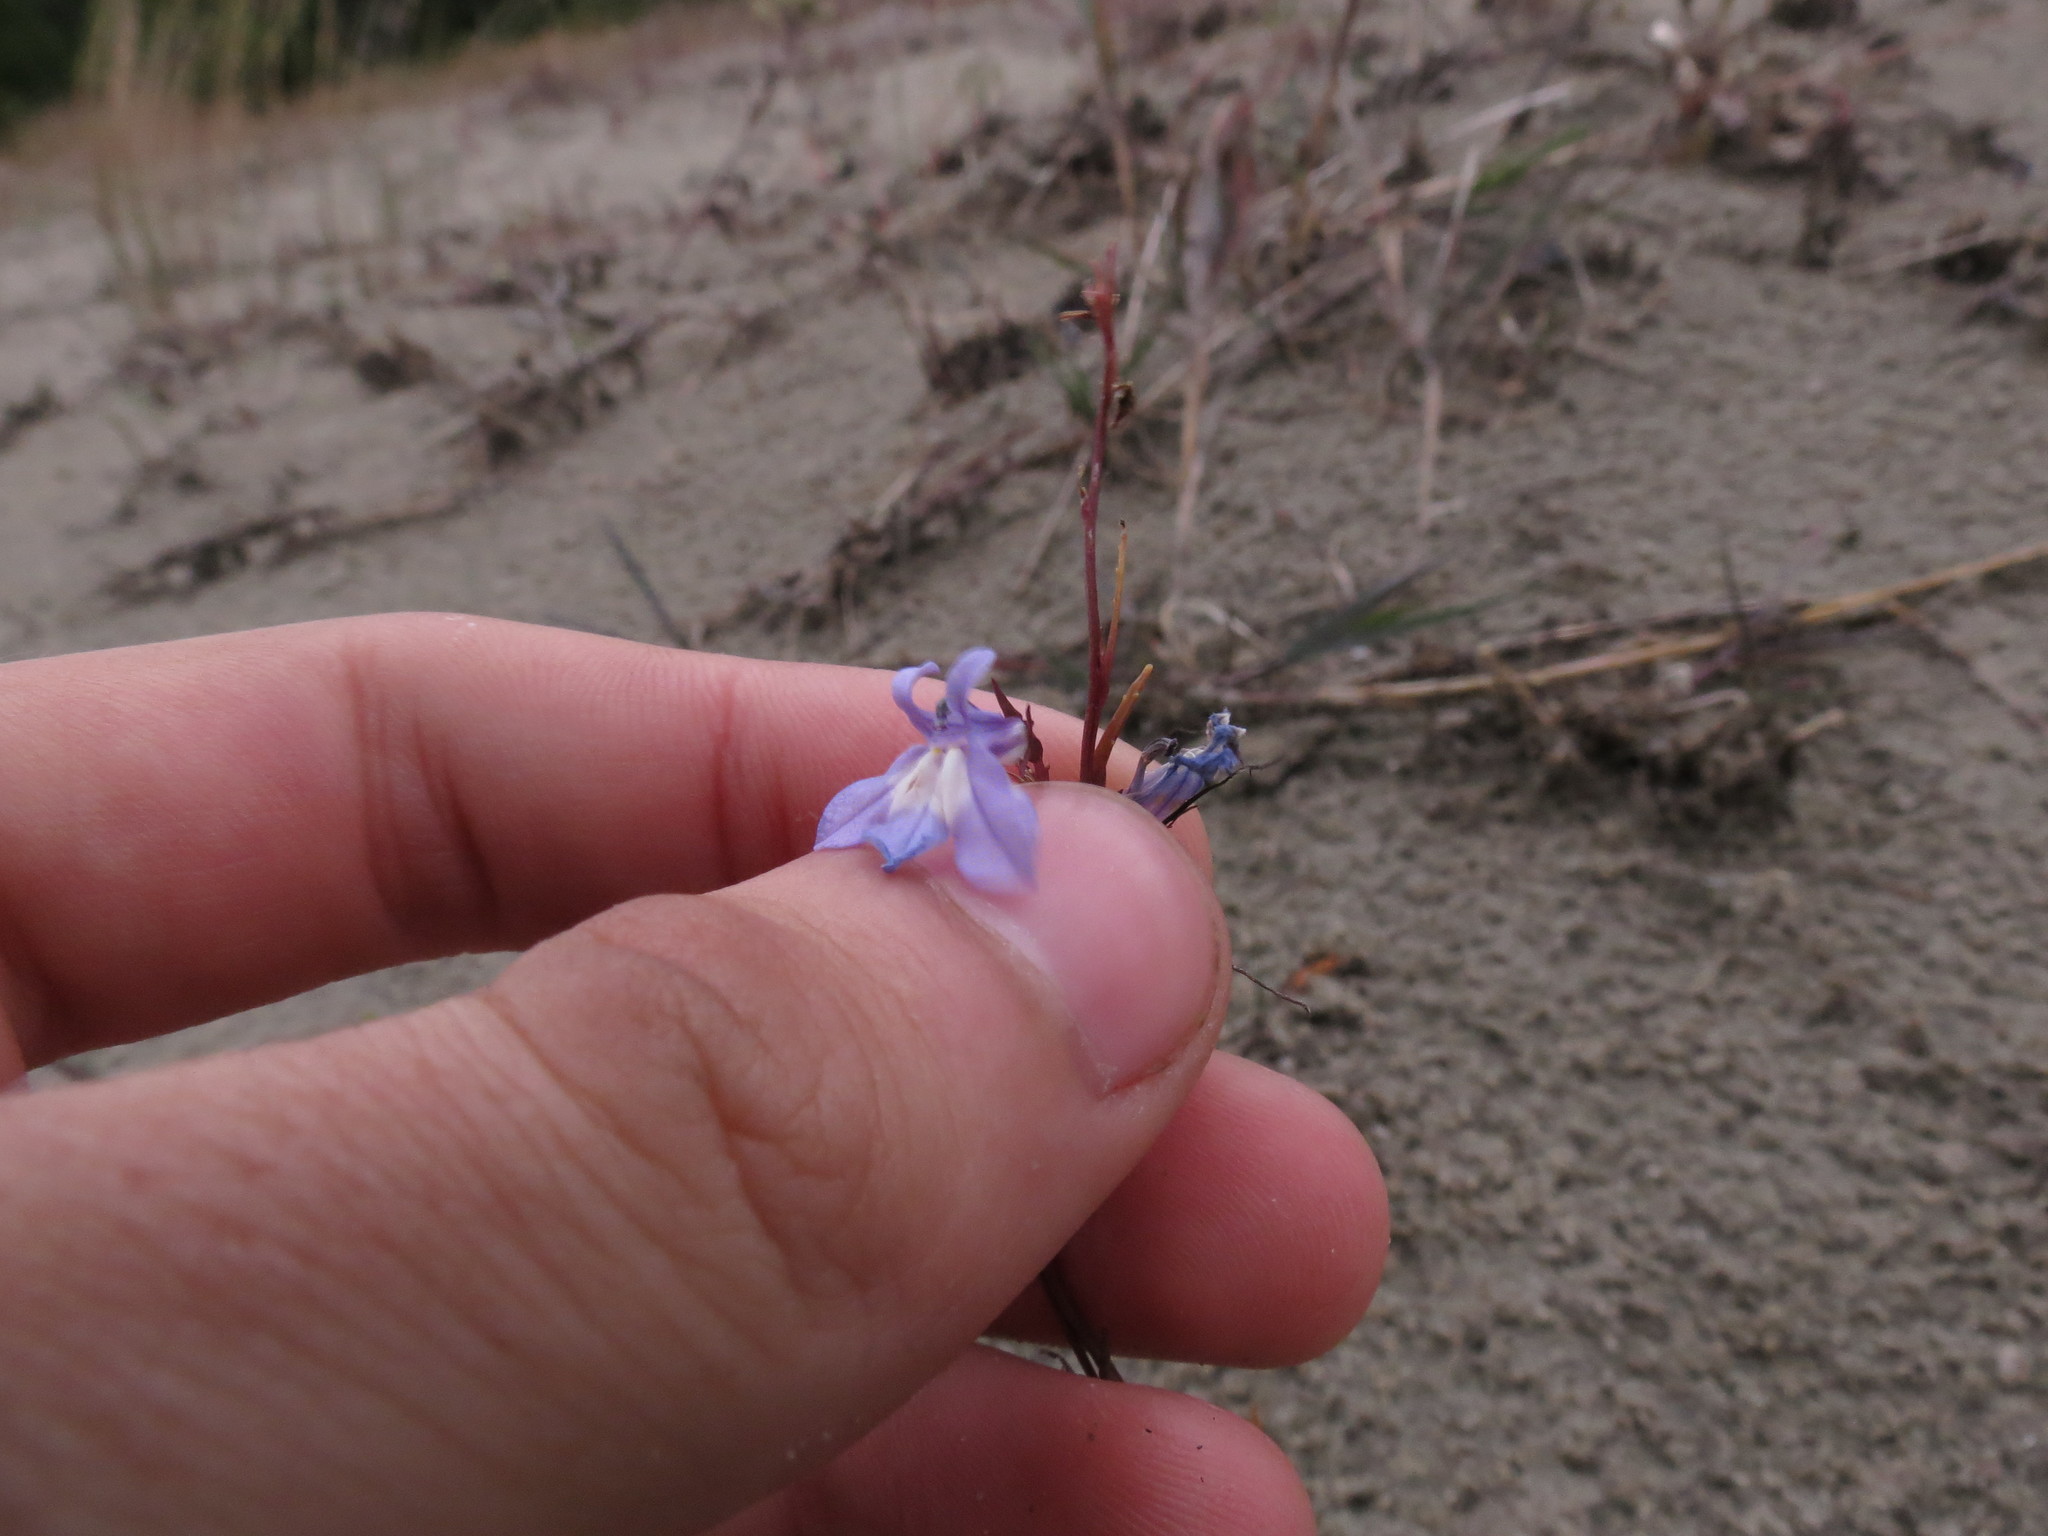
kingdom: Plantae
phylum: Tracheophyta
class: Magnoliopsida
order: Asterales
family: Campanulaceae
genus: Lobelia
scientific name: Lobelia kalmii
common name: Kalm's lobelia
